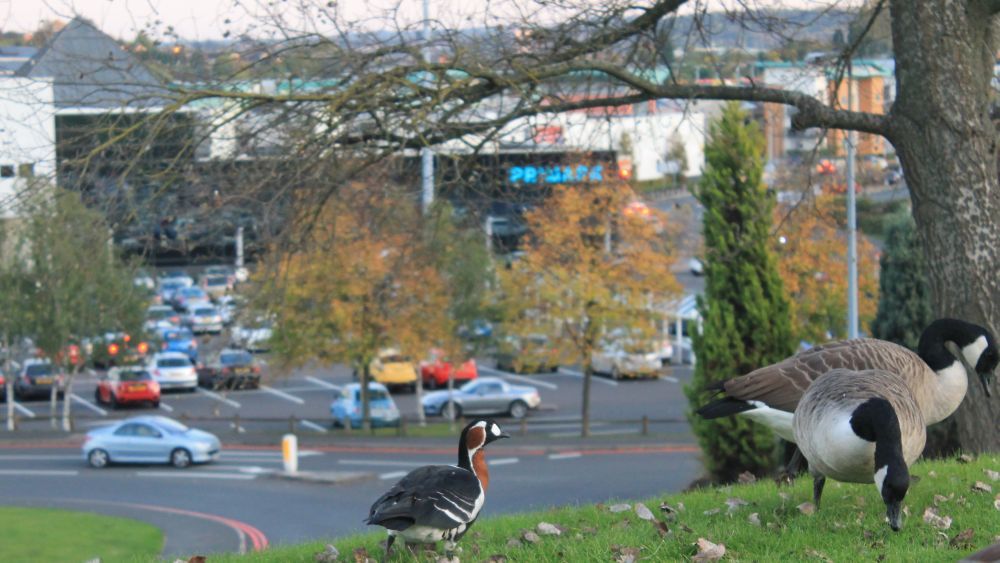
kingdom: Animalia
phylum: Chordata
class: Aves
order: Anseriformes
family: Anatidae
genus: Branta
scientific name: Branta ruficollis
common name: Red-breasted goose
